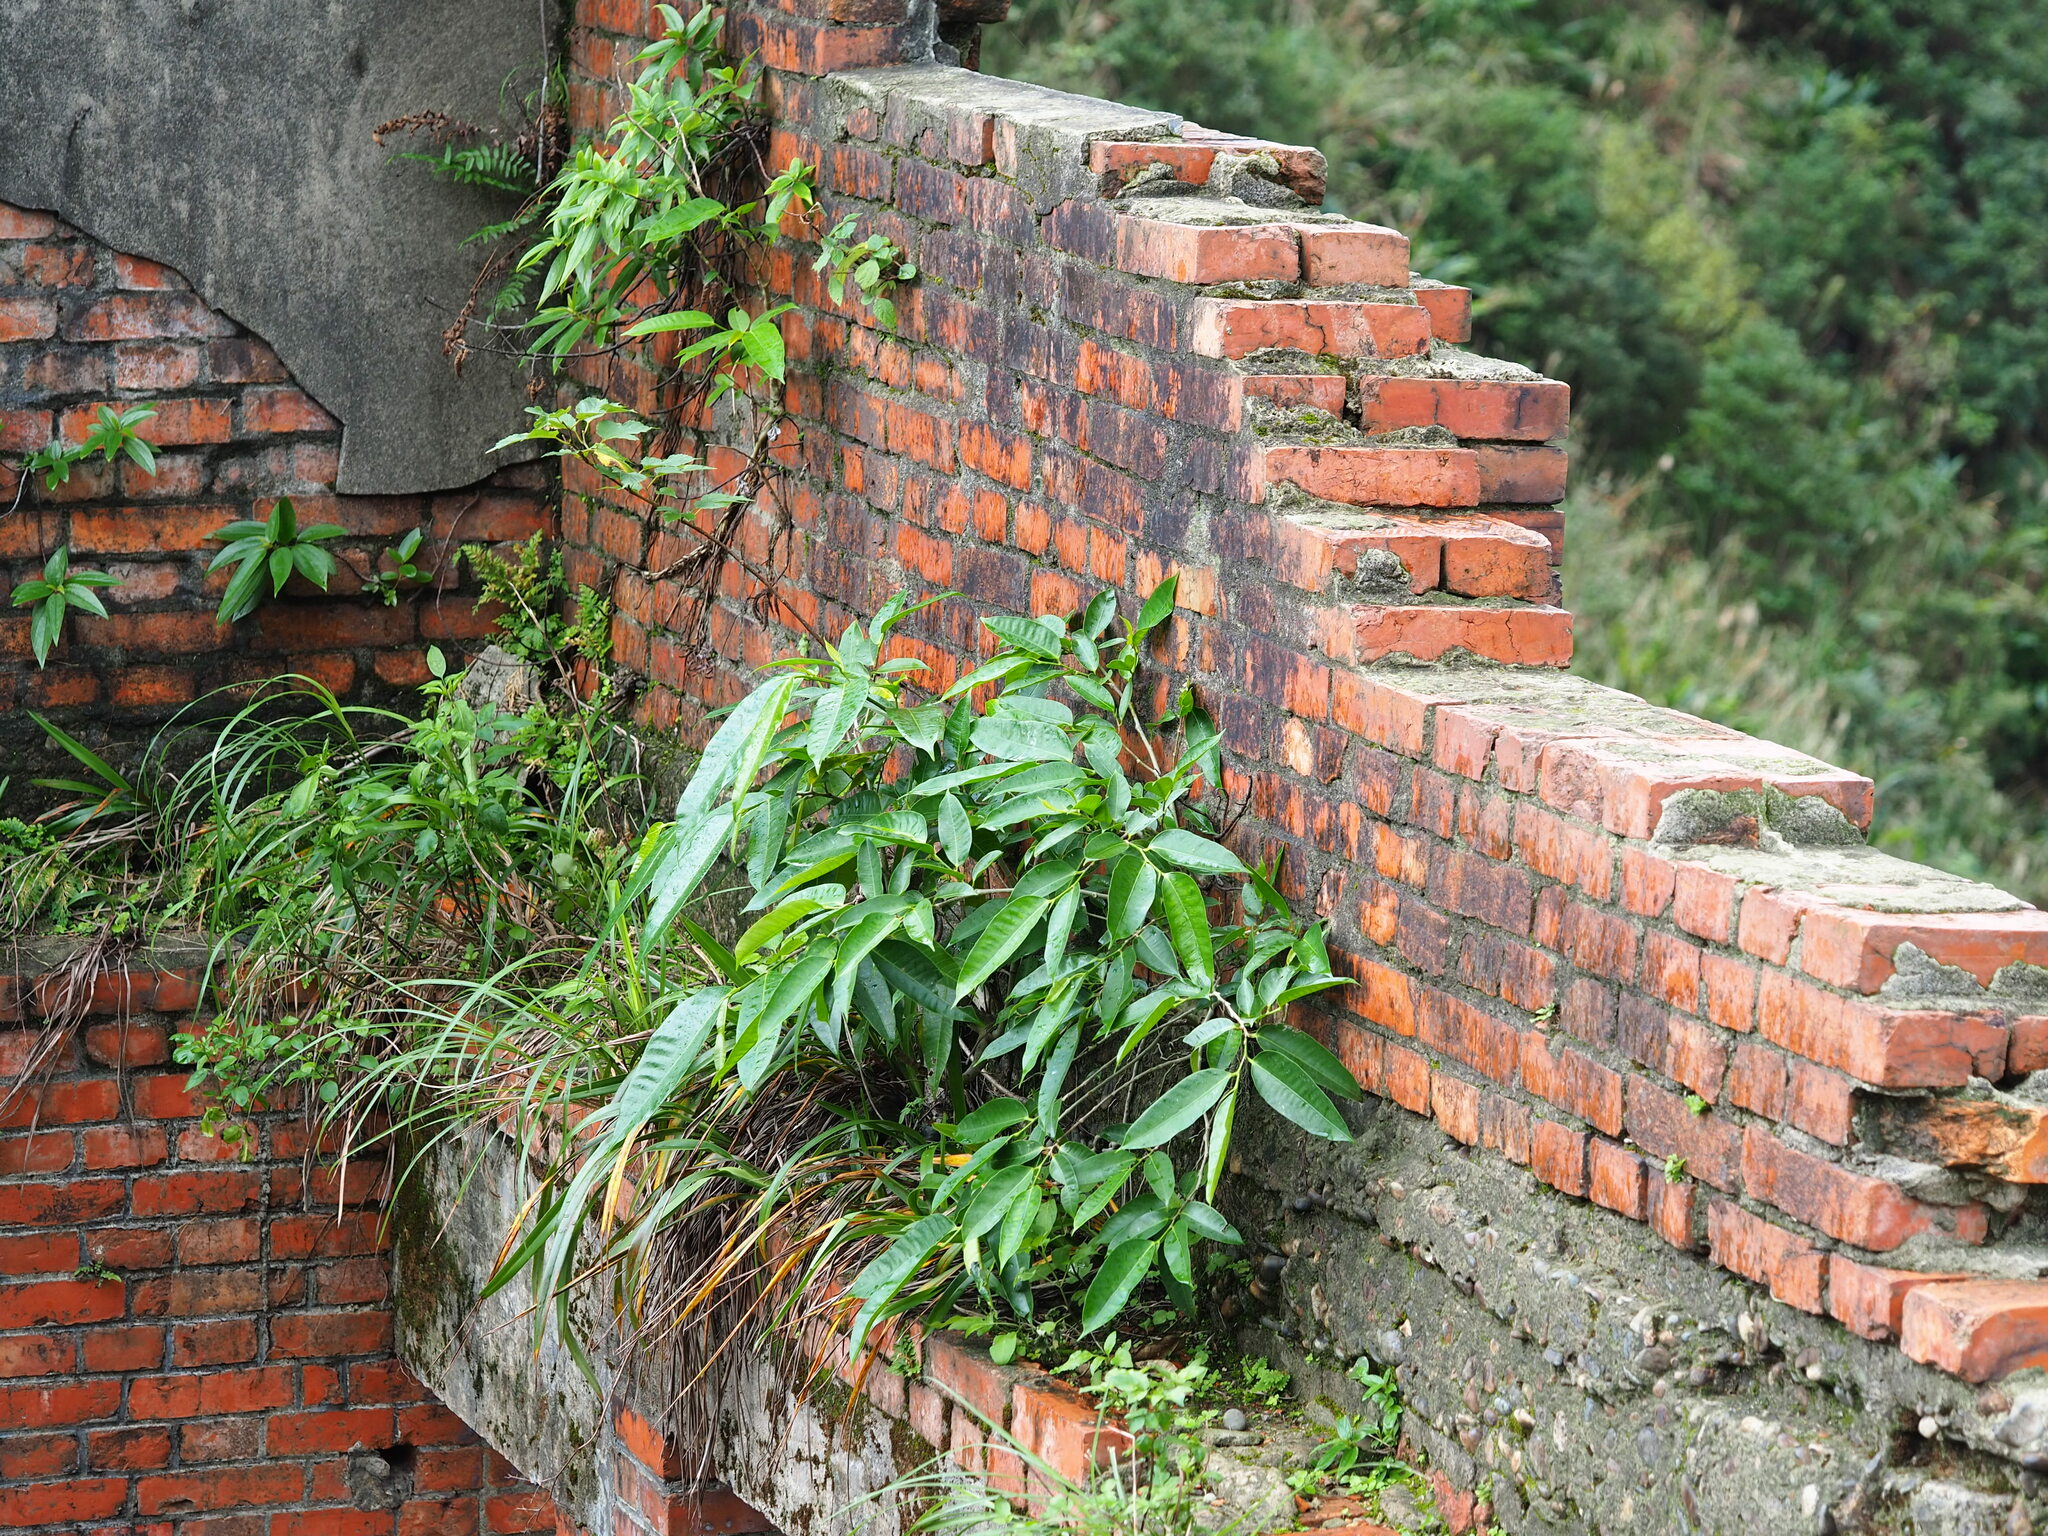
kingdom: Plantae
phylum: Tracheophyta
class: Magnoliopsida
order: Rosales
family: Moraceae
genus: Ficus
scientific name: Ficus virgata
